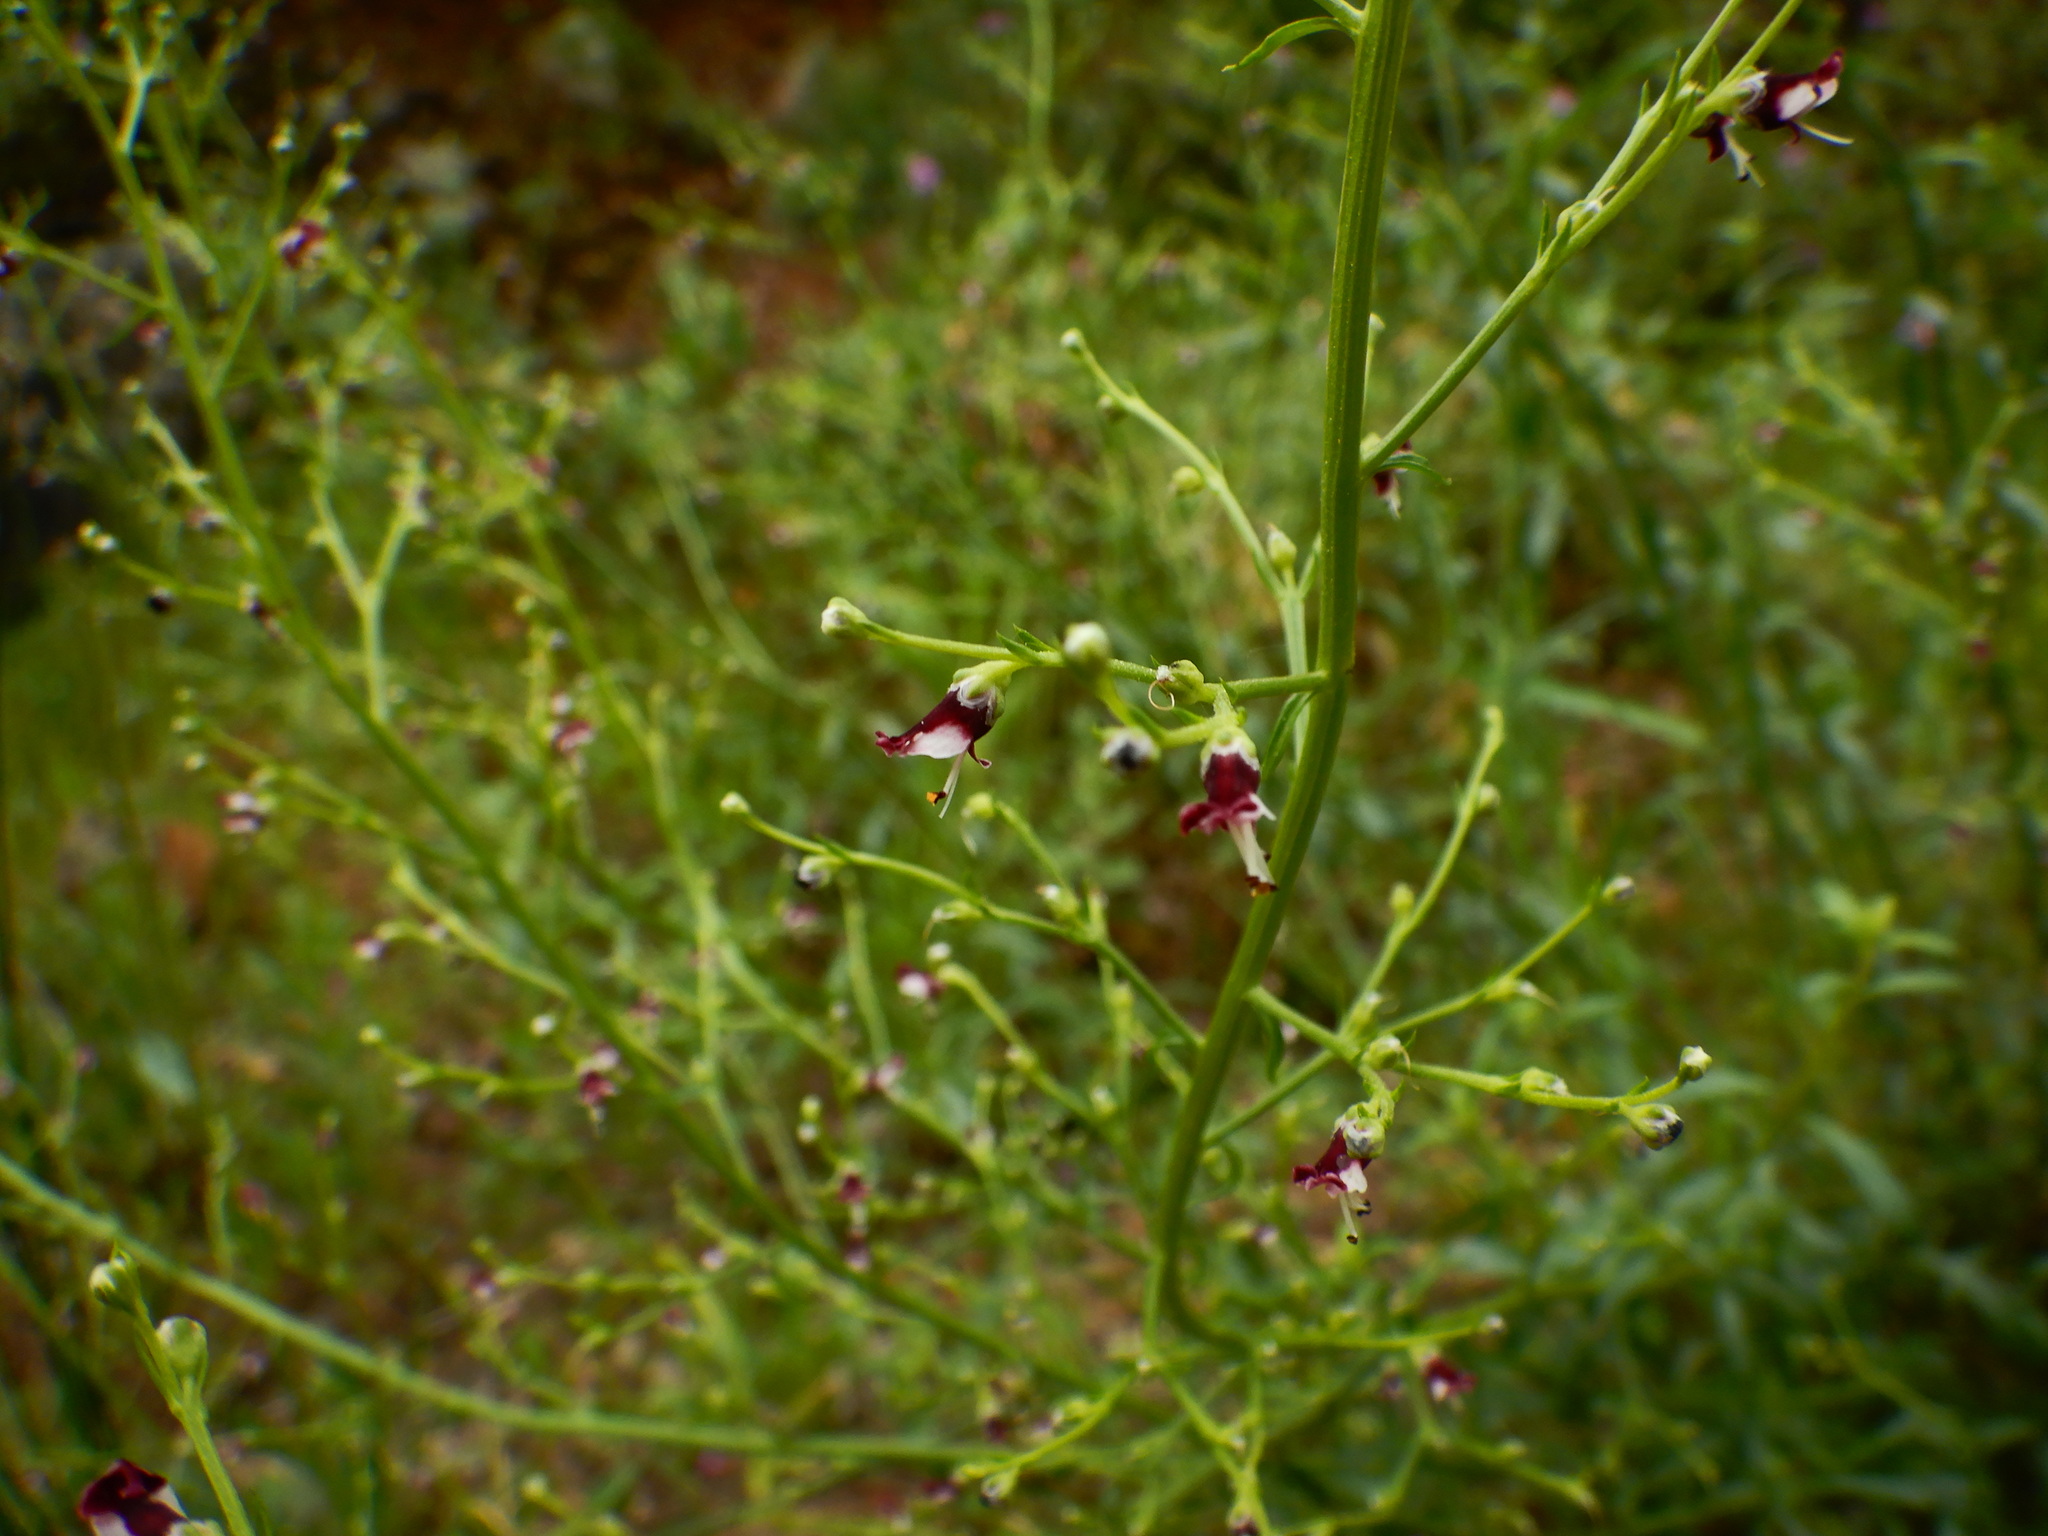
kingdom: Plantae
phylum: Tracheophyta
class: Magnoliopsida
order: Lamiales
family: Scrophulariaceae
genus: Scrophularia
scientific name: Scrophularia canina
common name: French figwort
